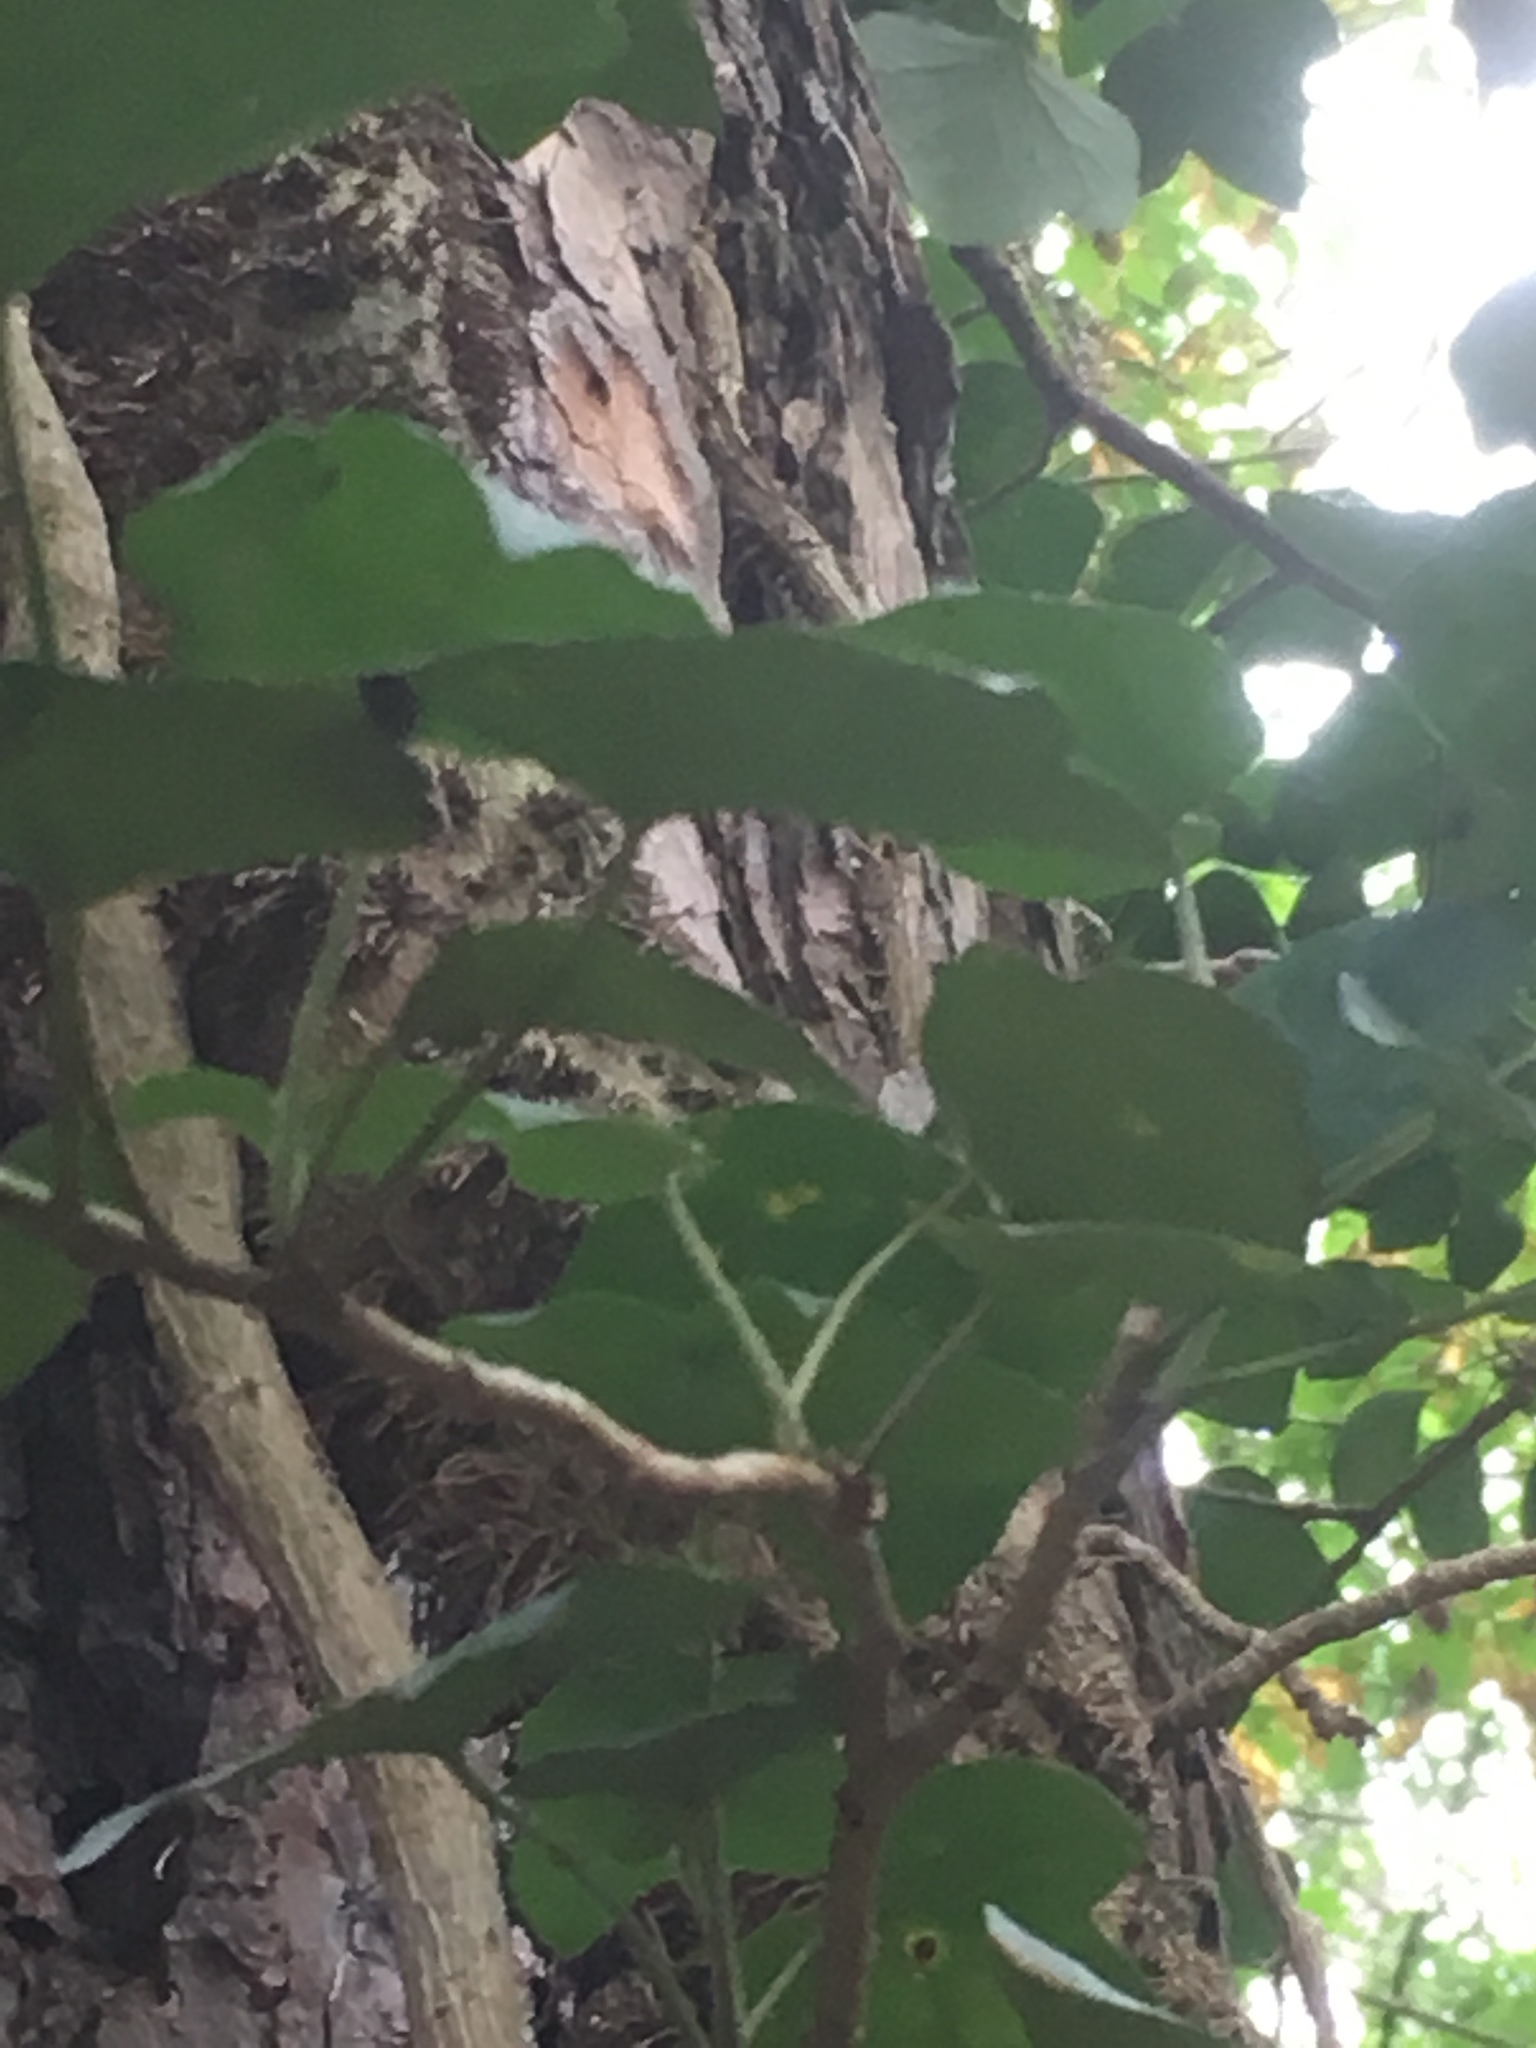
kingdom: Plantae
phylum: Tracheophyta
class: Magnoliopsida
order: Apiales
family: Araliaceae
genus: Hedera
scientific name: Hedera helix
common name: Ivy
